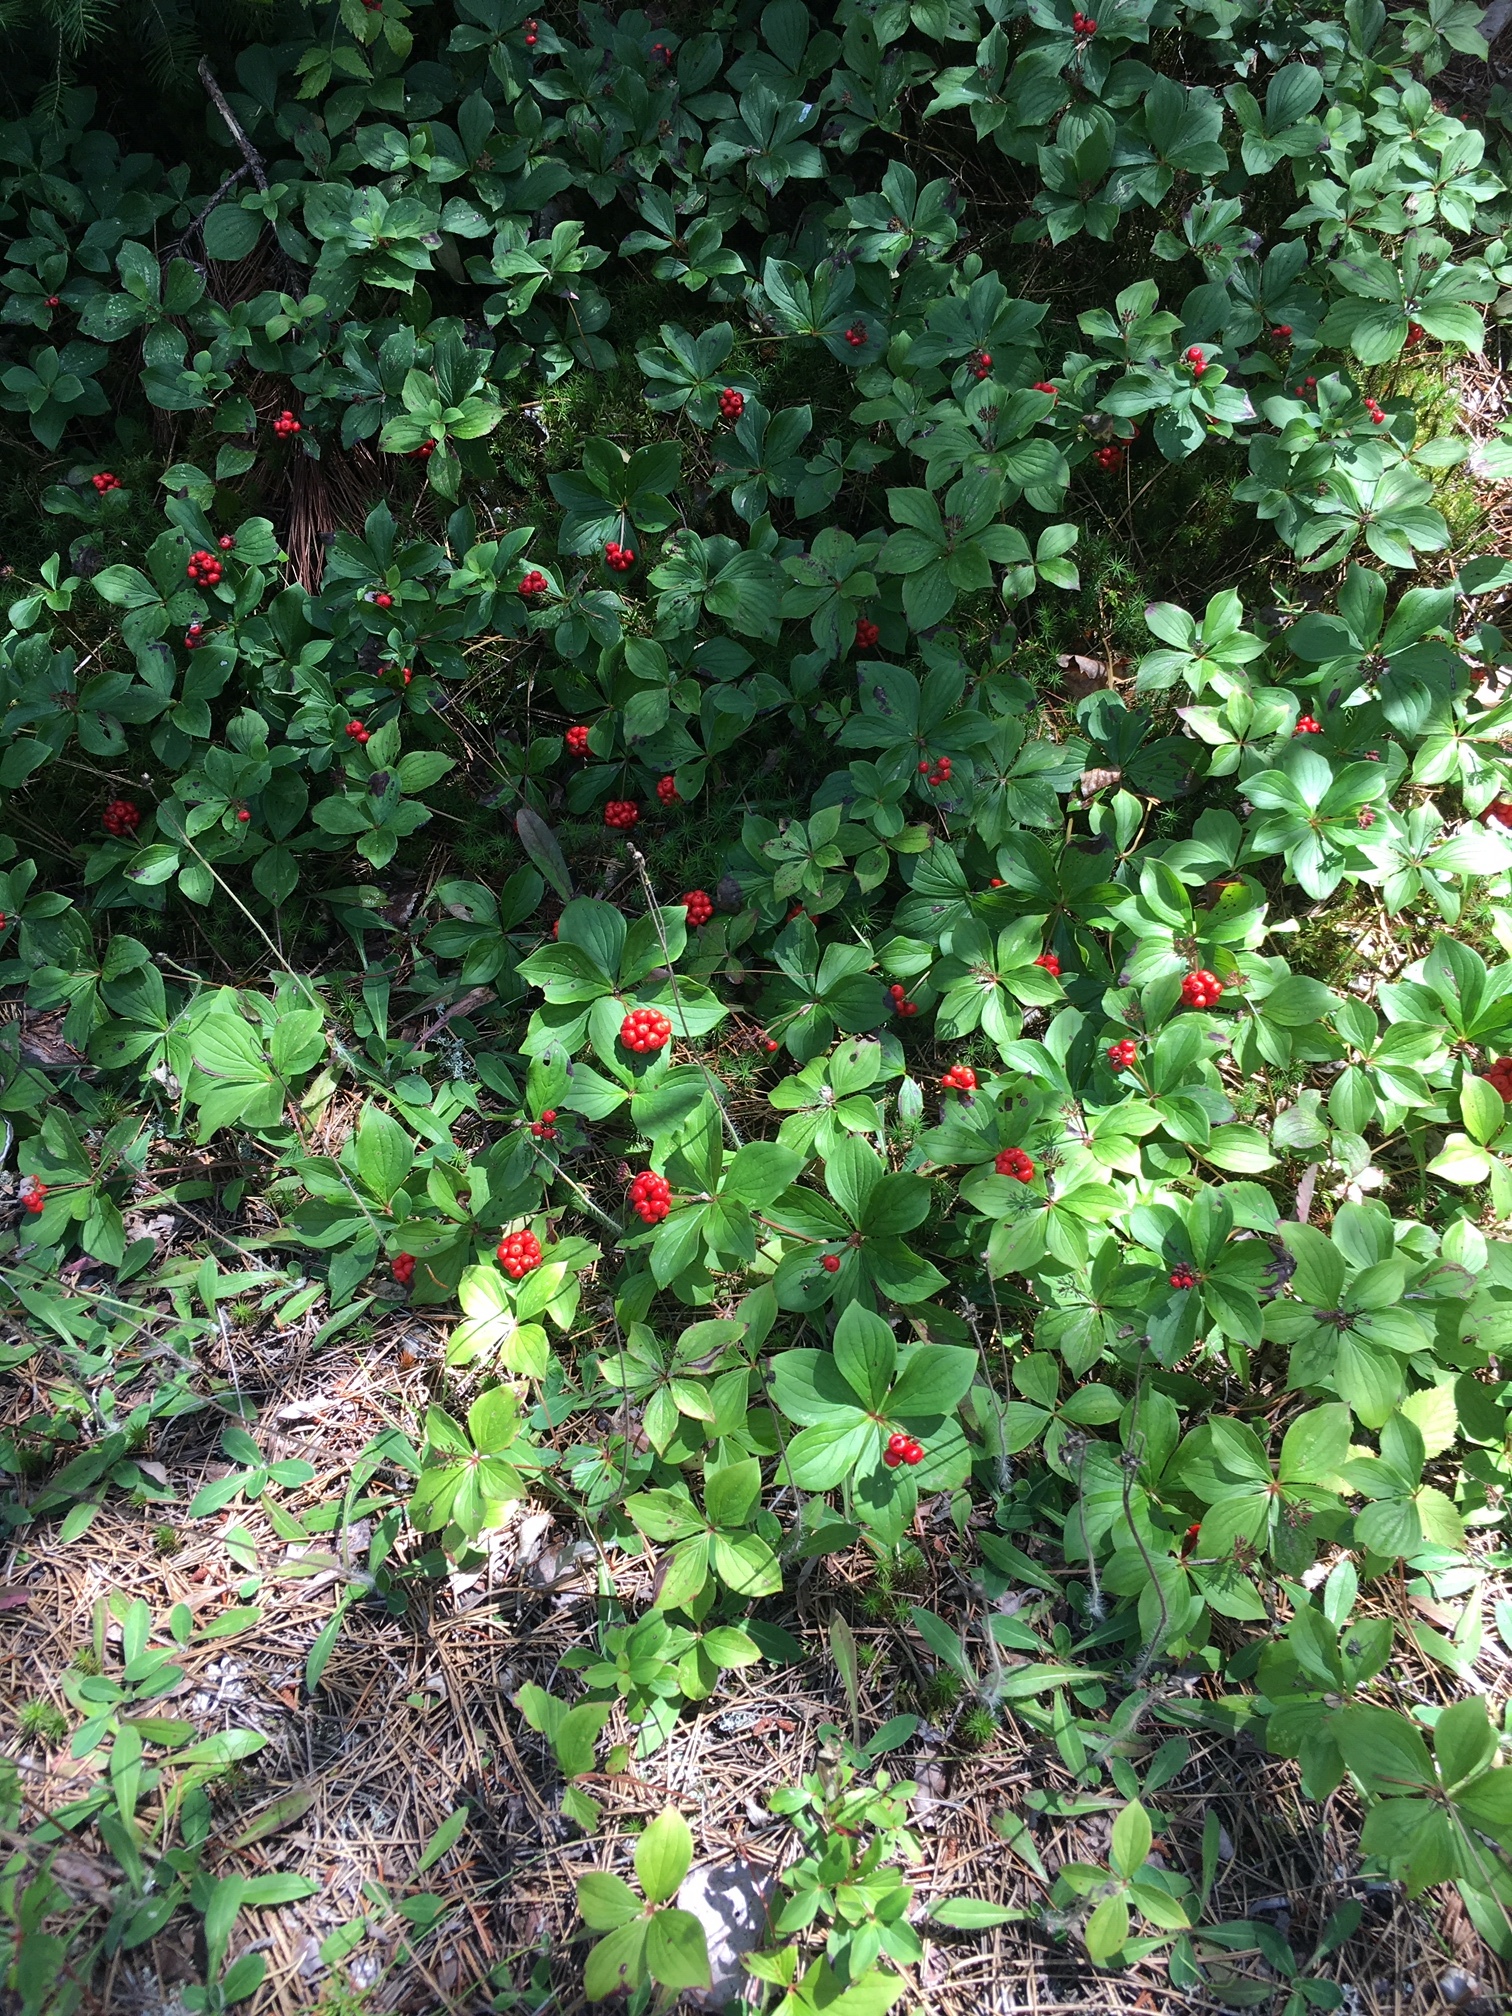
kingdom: Plantae
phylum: Tracheophyta
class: Magnoliopsida
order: Cornales
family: Cornaceae
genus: Cornus
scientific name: Cornus canadensis
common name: Creeping dogwood
